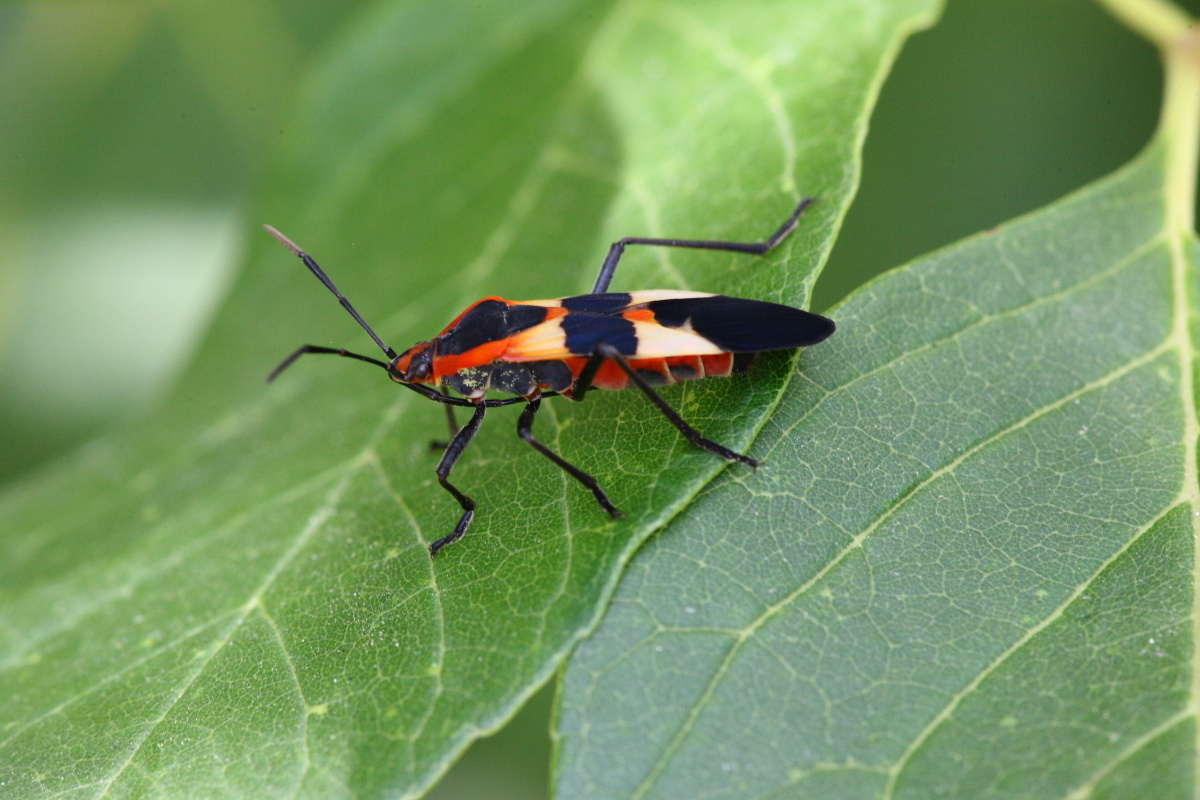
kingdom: Animalia
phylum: Arthropoda
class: Insecta
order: Hemiptera
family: Lygaeidae
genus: Oncopeltus
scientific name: Oncopeltus fasciatus
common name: Large milkweed bug
